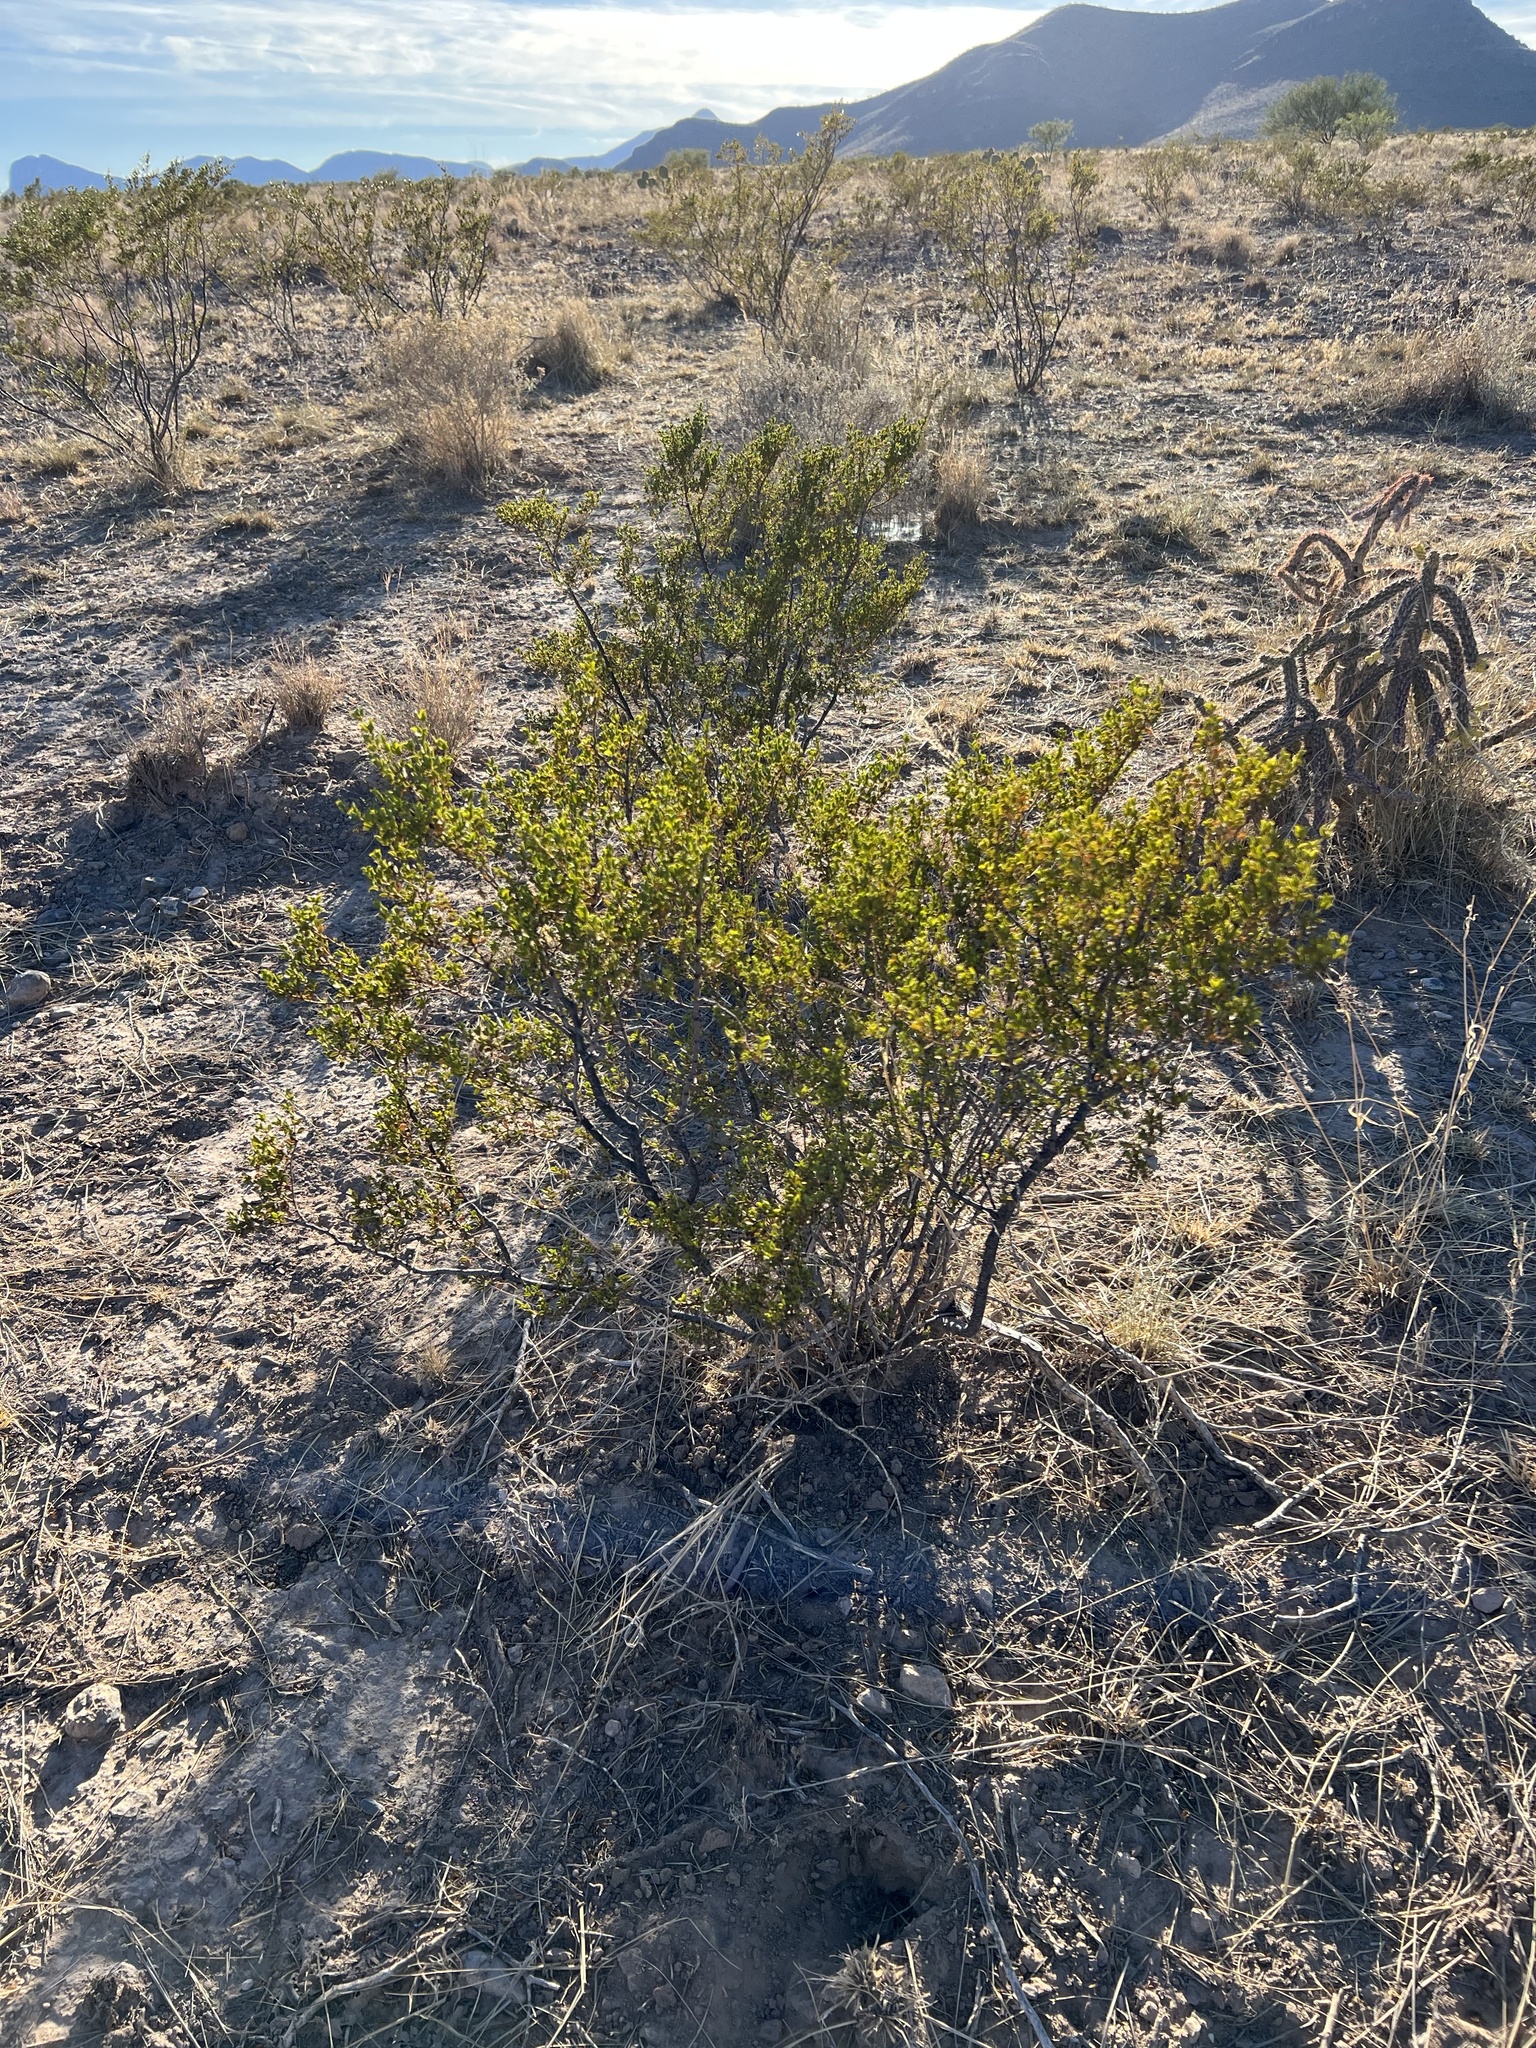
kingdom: Plantae
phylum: Tracheophyta
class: Magnoliopsida
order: Zygophyllales
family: Zygophyllaceae
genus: Larrea
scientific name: Larrea tridentata
